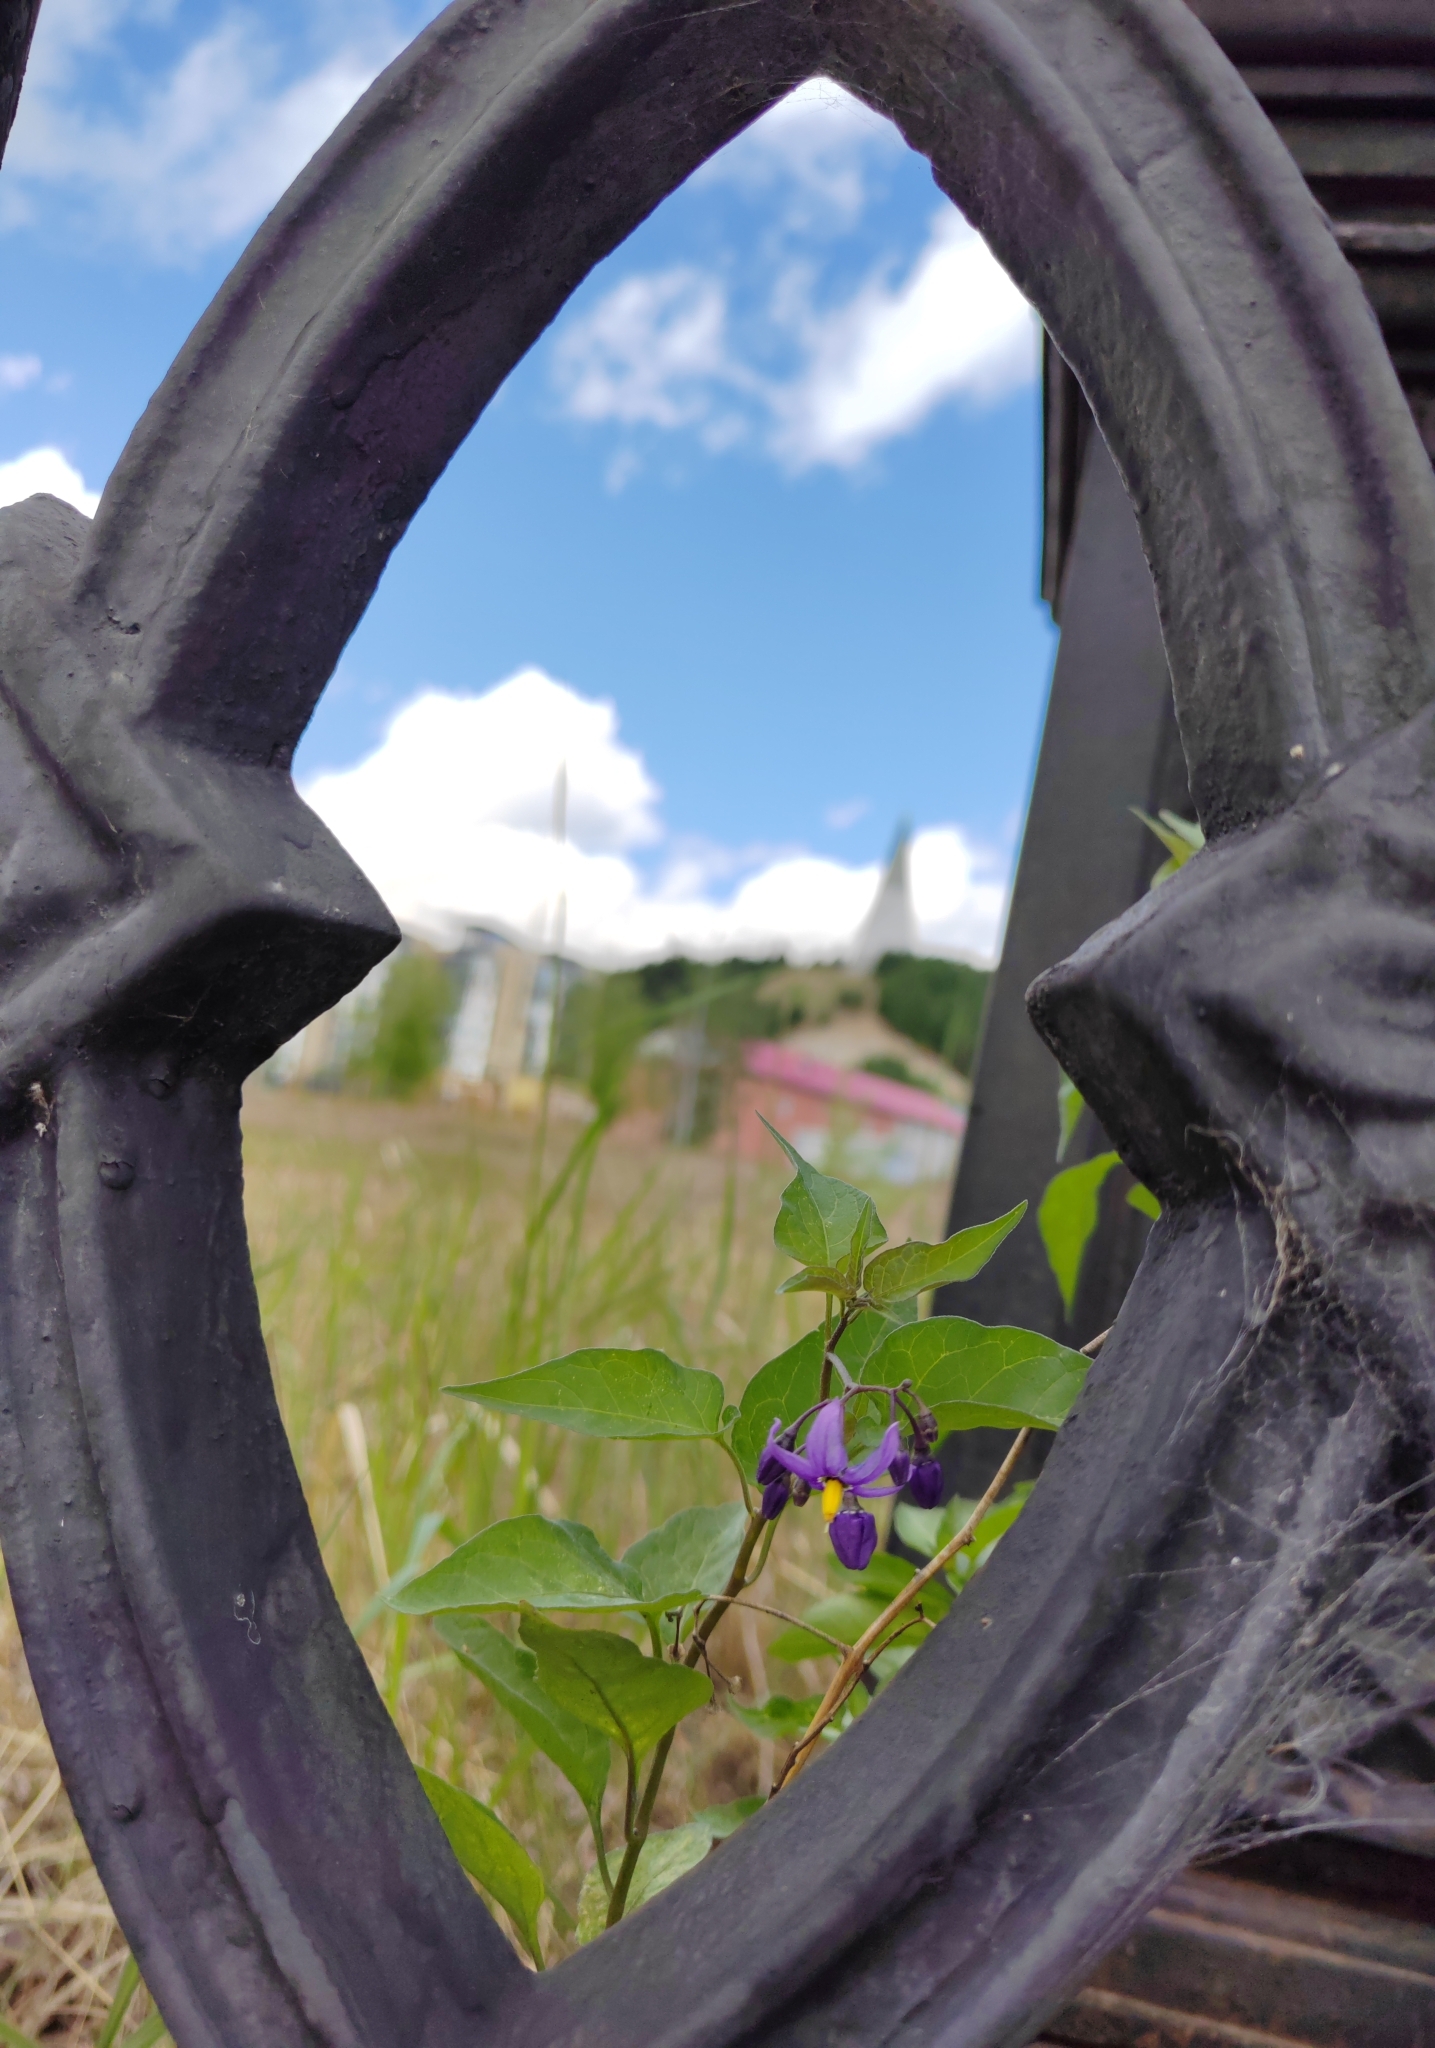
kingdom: Plantae
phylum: Tracheophyta
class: Magnoliopsida
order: Solanales
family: Solanaceae
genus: Solanum
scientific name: Solanum dulcamara
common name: Climbing nightshade
